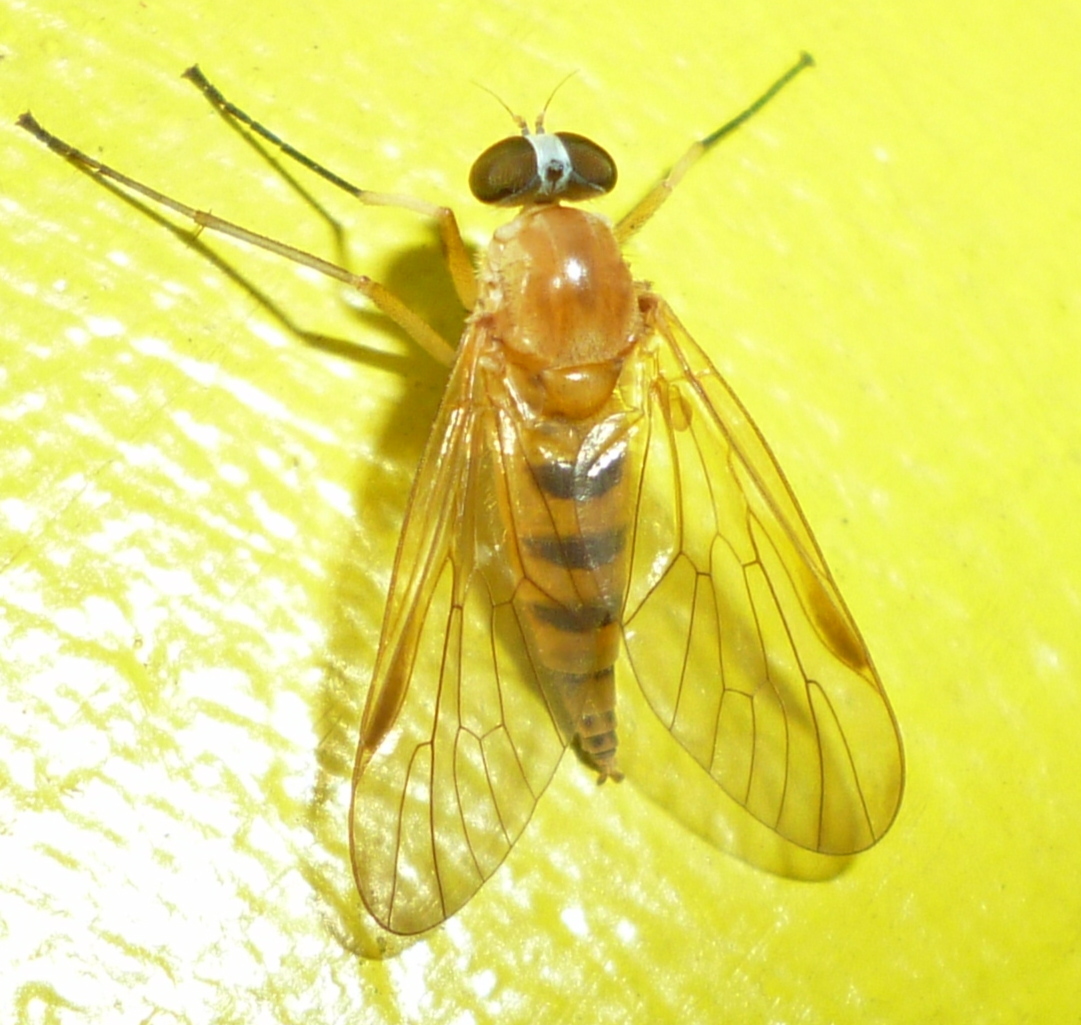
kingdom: Animalia
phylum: Arthropoda
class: Insecta
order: Diptera
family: Rhagionidae
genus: Rhagio
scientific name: Rhagio hirta
